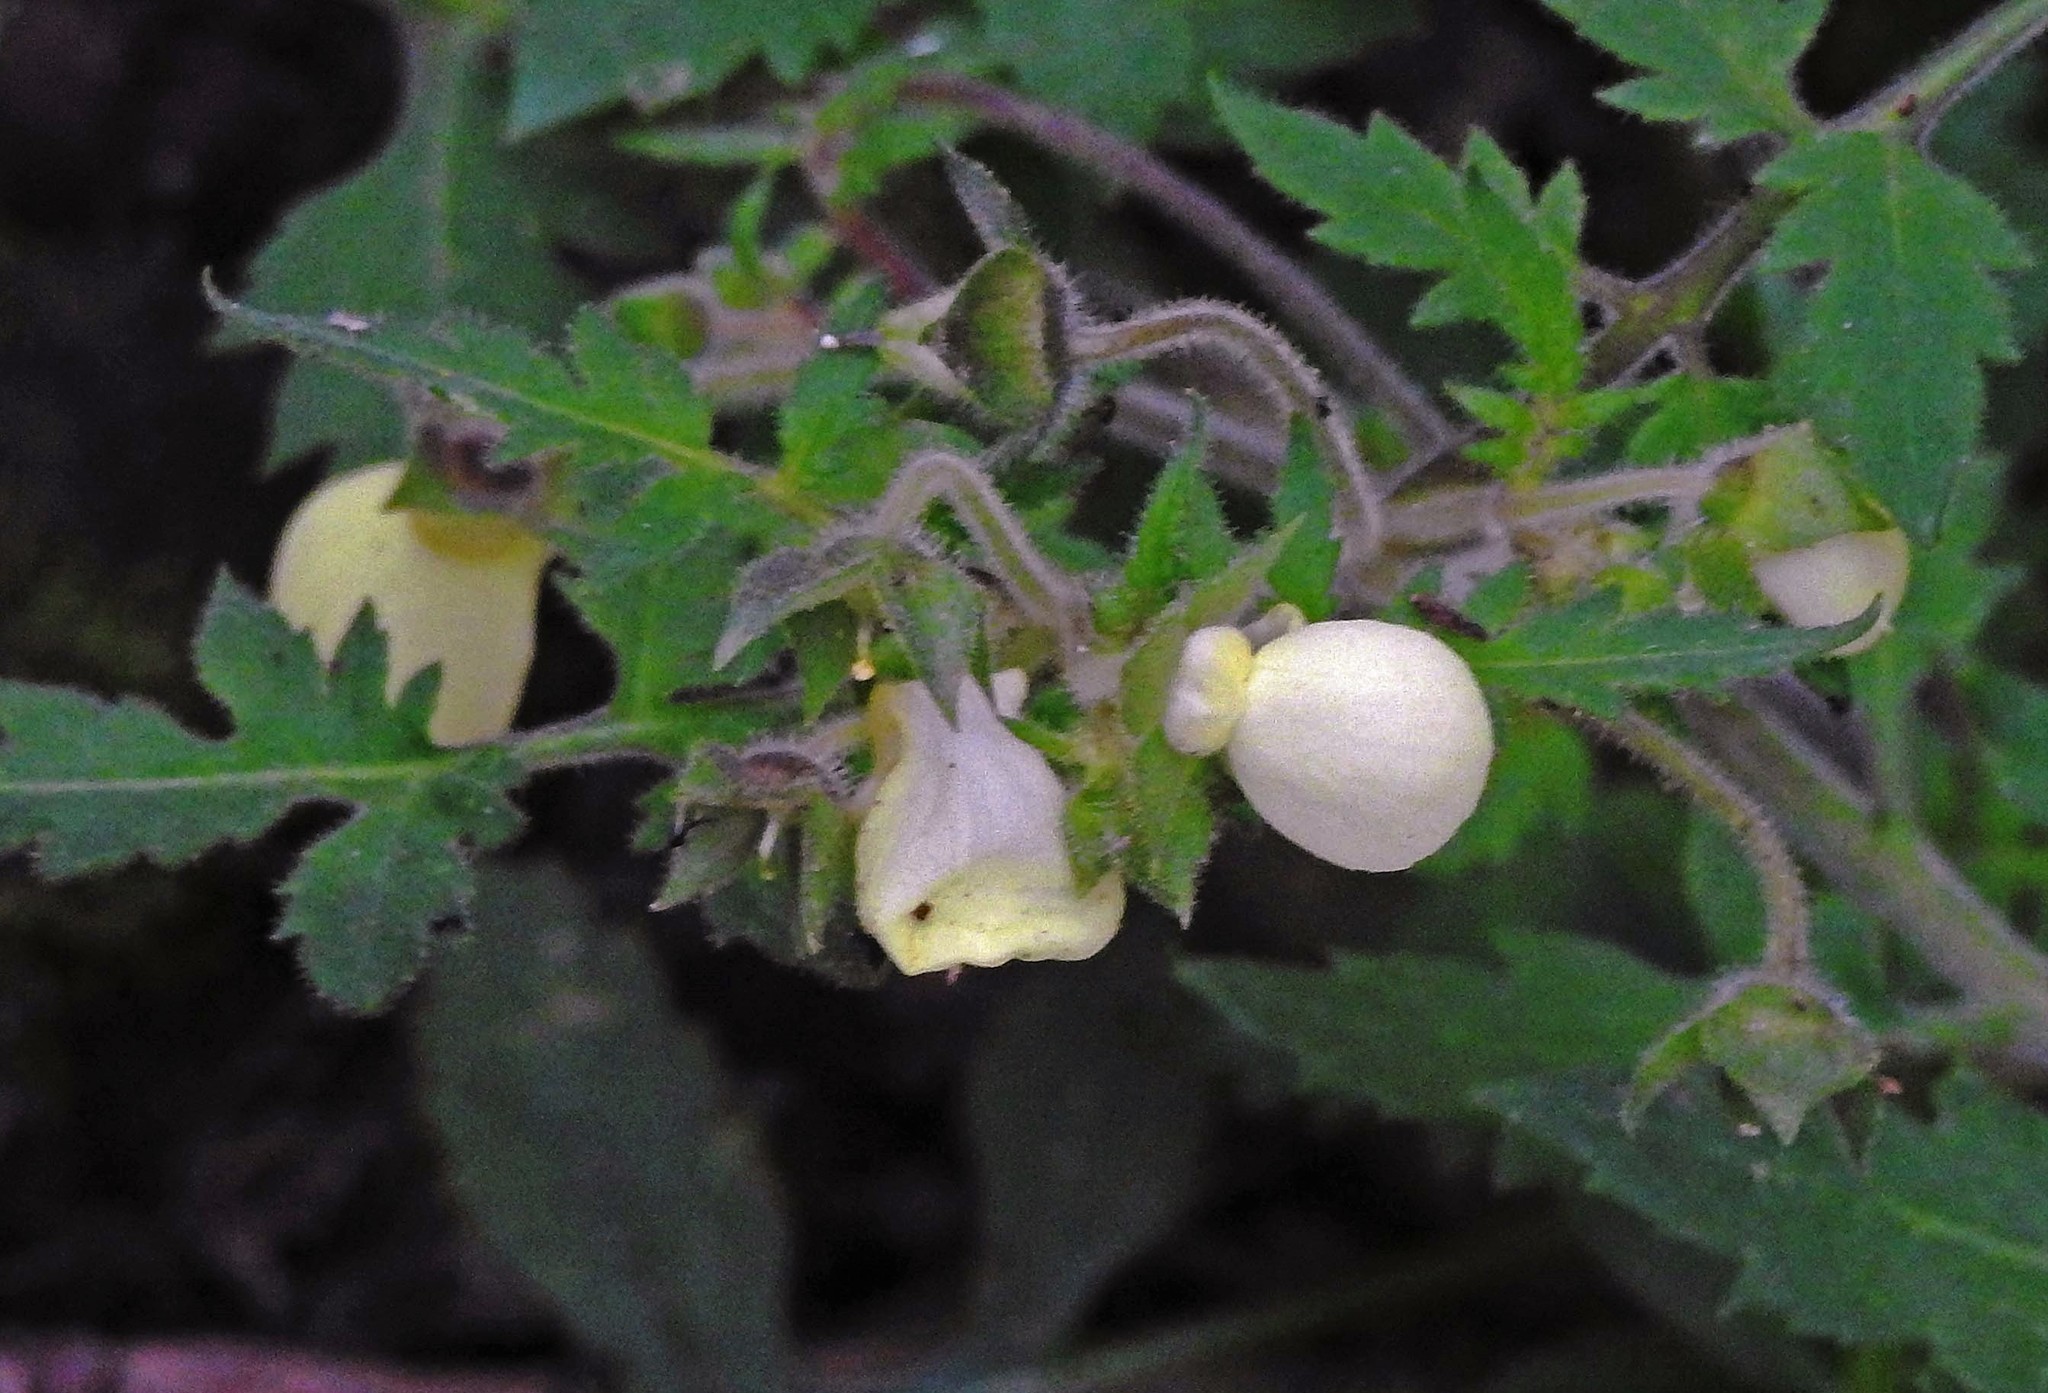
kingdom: Plantae
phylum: Tracheophyta
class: Magnoliopsida
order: Lamiales
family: Calceolariaceae
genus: Calceolaria
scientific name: Calceolaria chelidonioides
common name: Slipperwort
